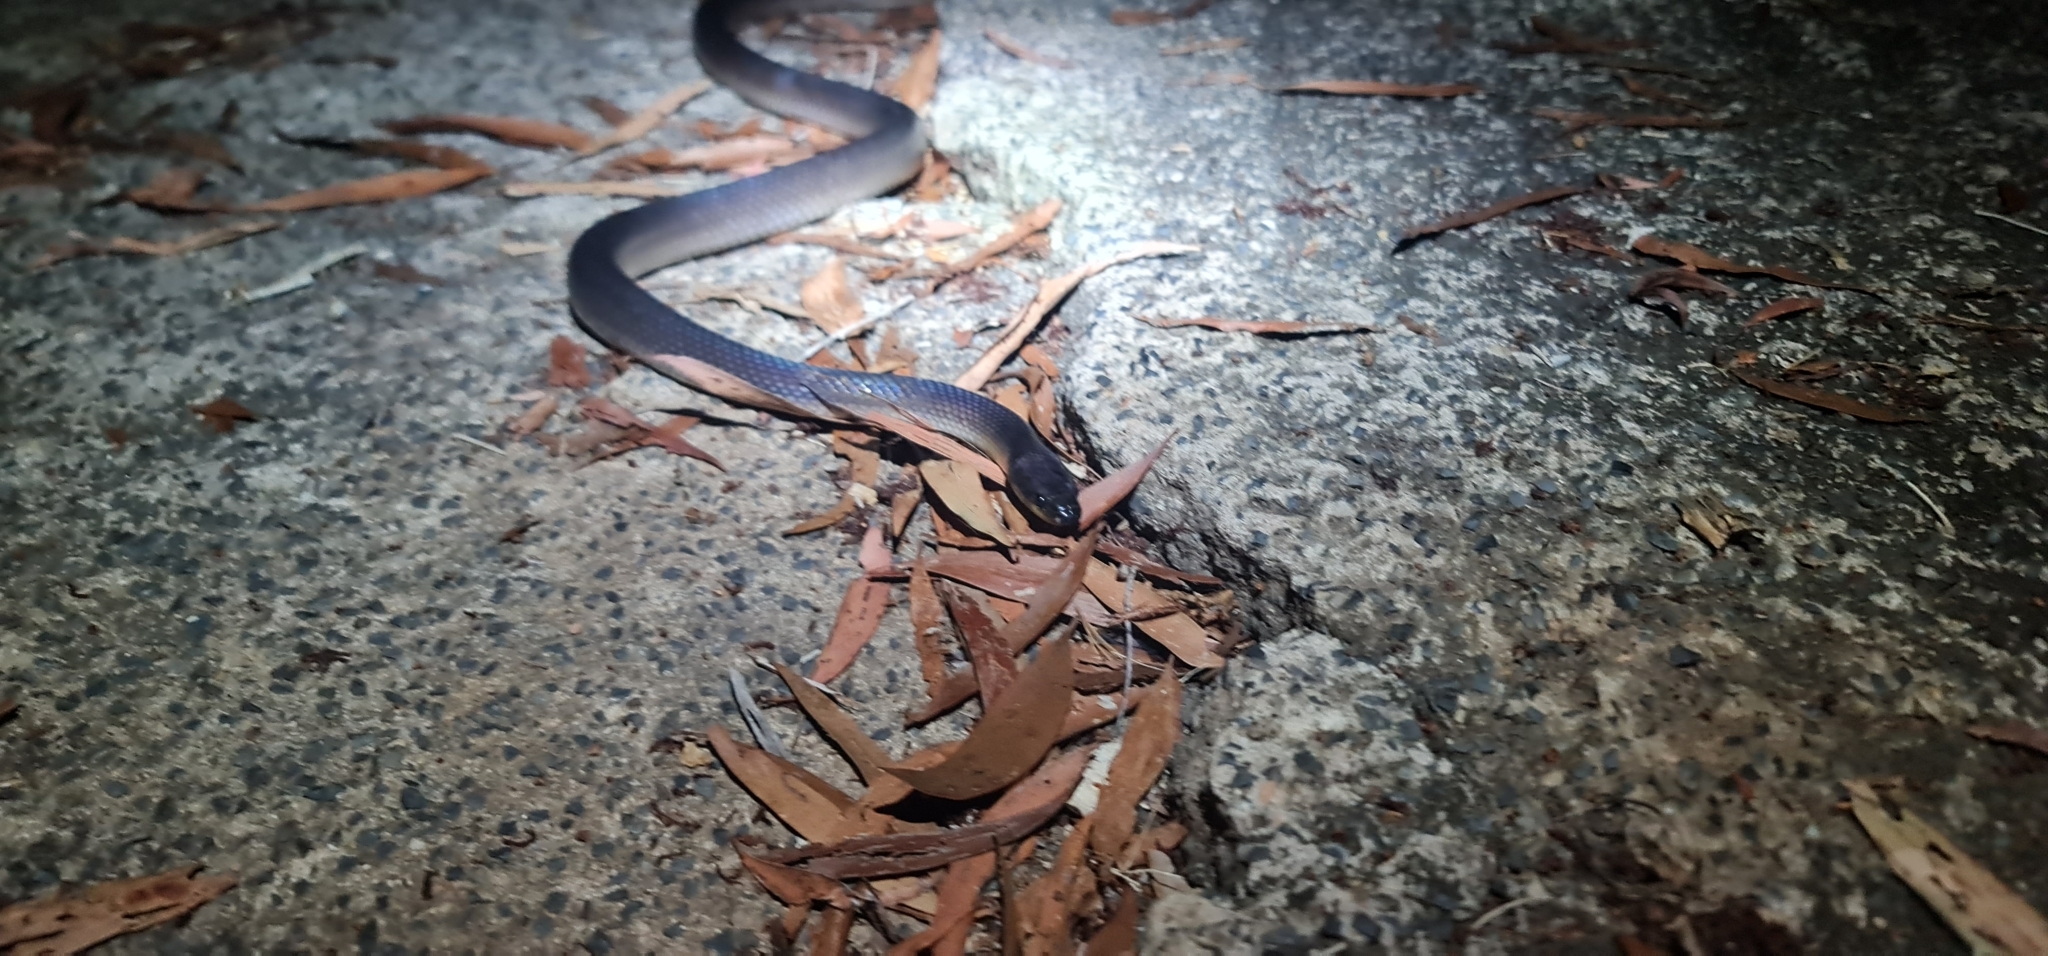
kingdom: Animalia
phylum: Chordata
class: Squamata
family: Colubridae
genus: Stegonotus
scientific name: Stegonotus australis
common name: Australian groundsnake
